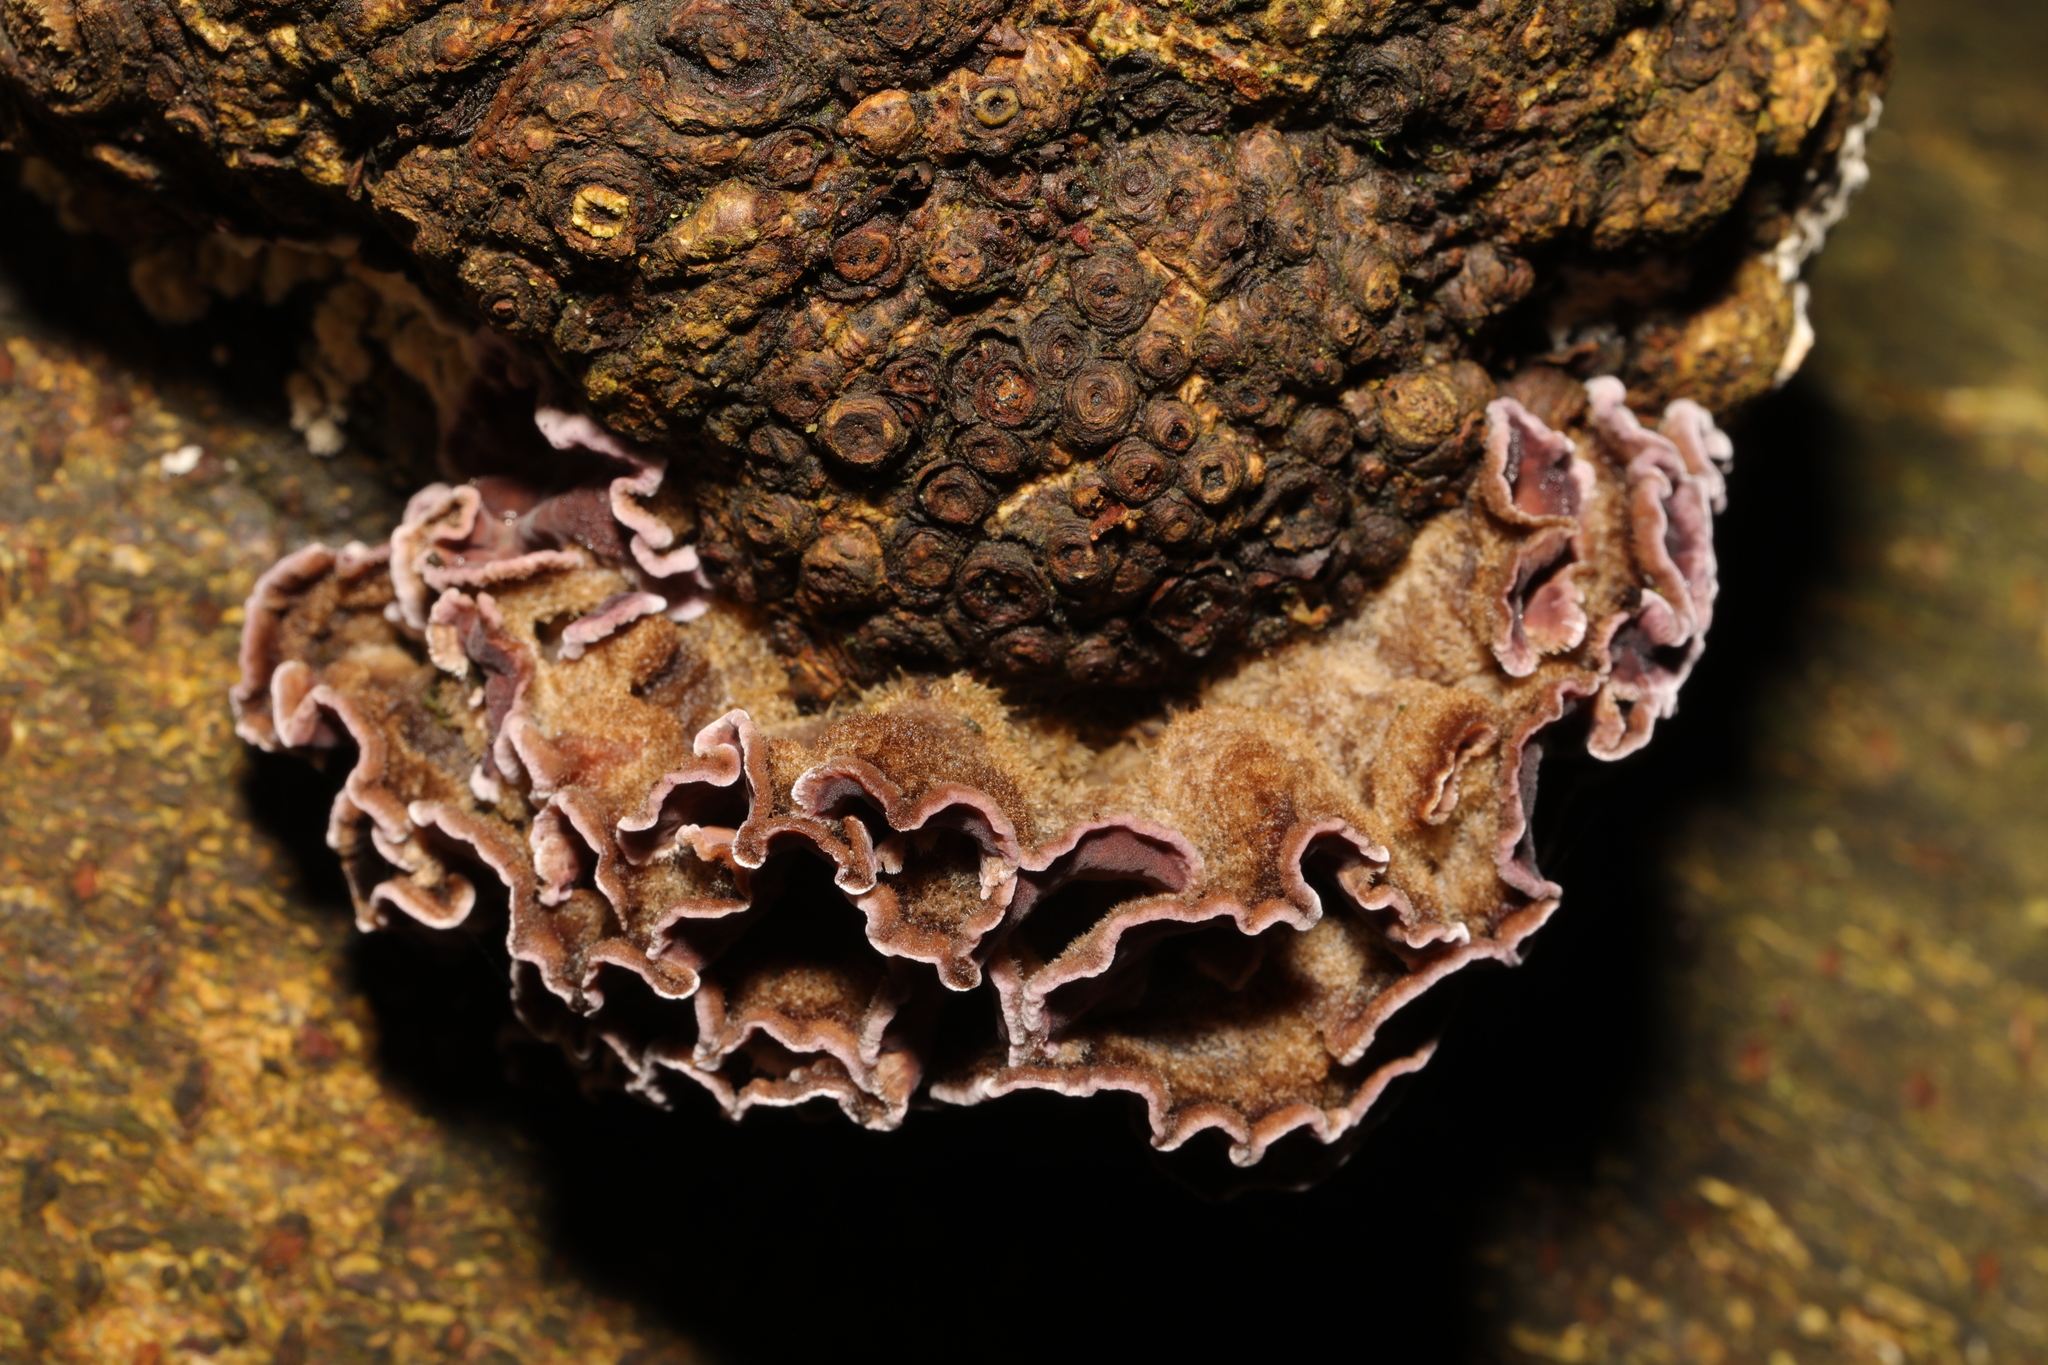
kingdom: Fungi
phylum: Basidiomycota
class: Agaricomycetes
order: Agaricales
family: Cyphellaceae
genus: Chondrostereum
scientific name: Chondrostereum purpureum
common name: Silver leaf disease
